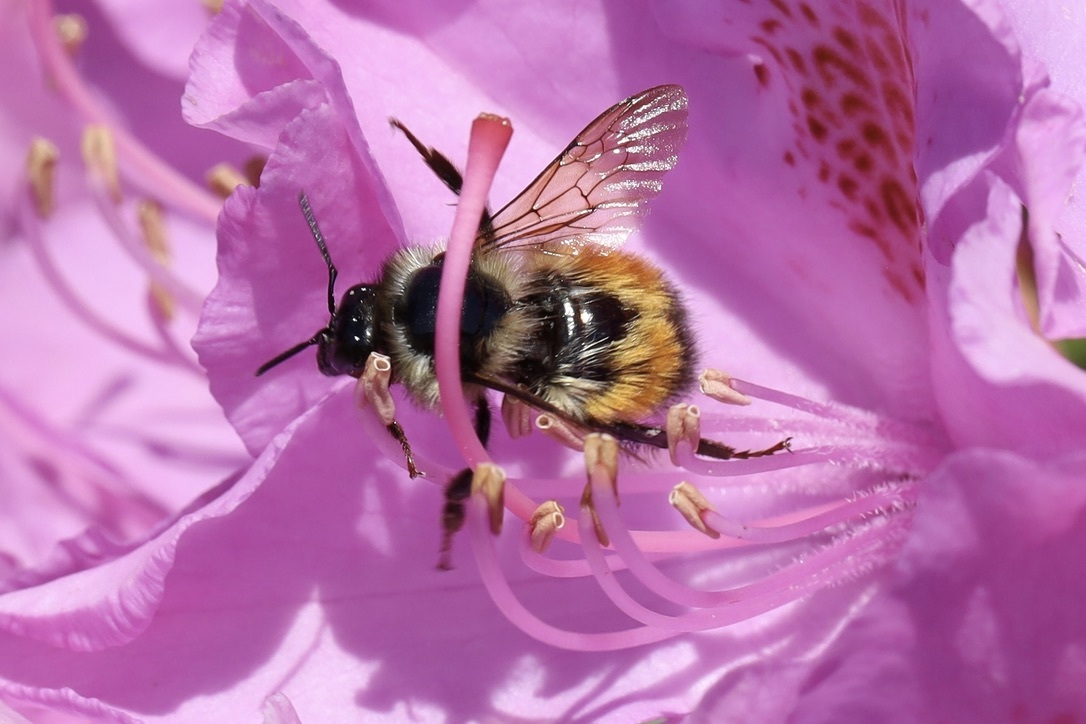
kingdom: Animalia
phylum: Arthropoda
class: Insecta
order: Hymenoptera
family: Apidae
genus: Bombus
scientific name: Bombus melanopygus
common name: Black tail bumble bee
